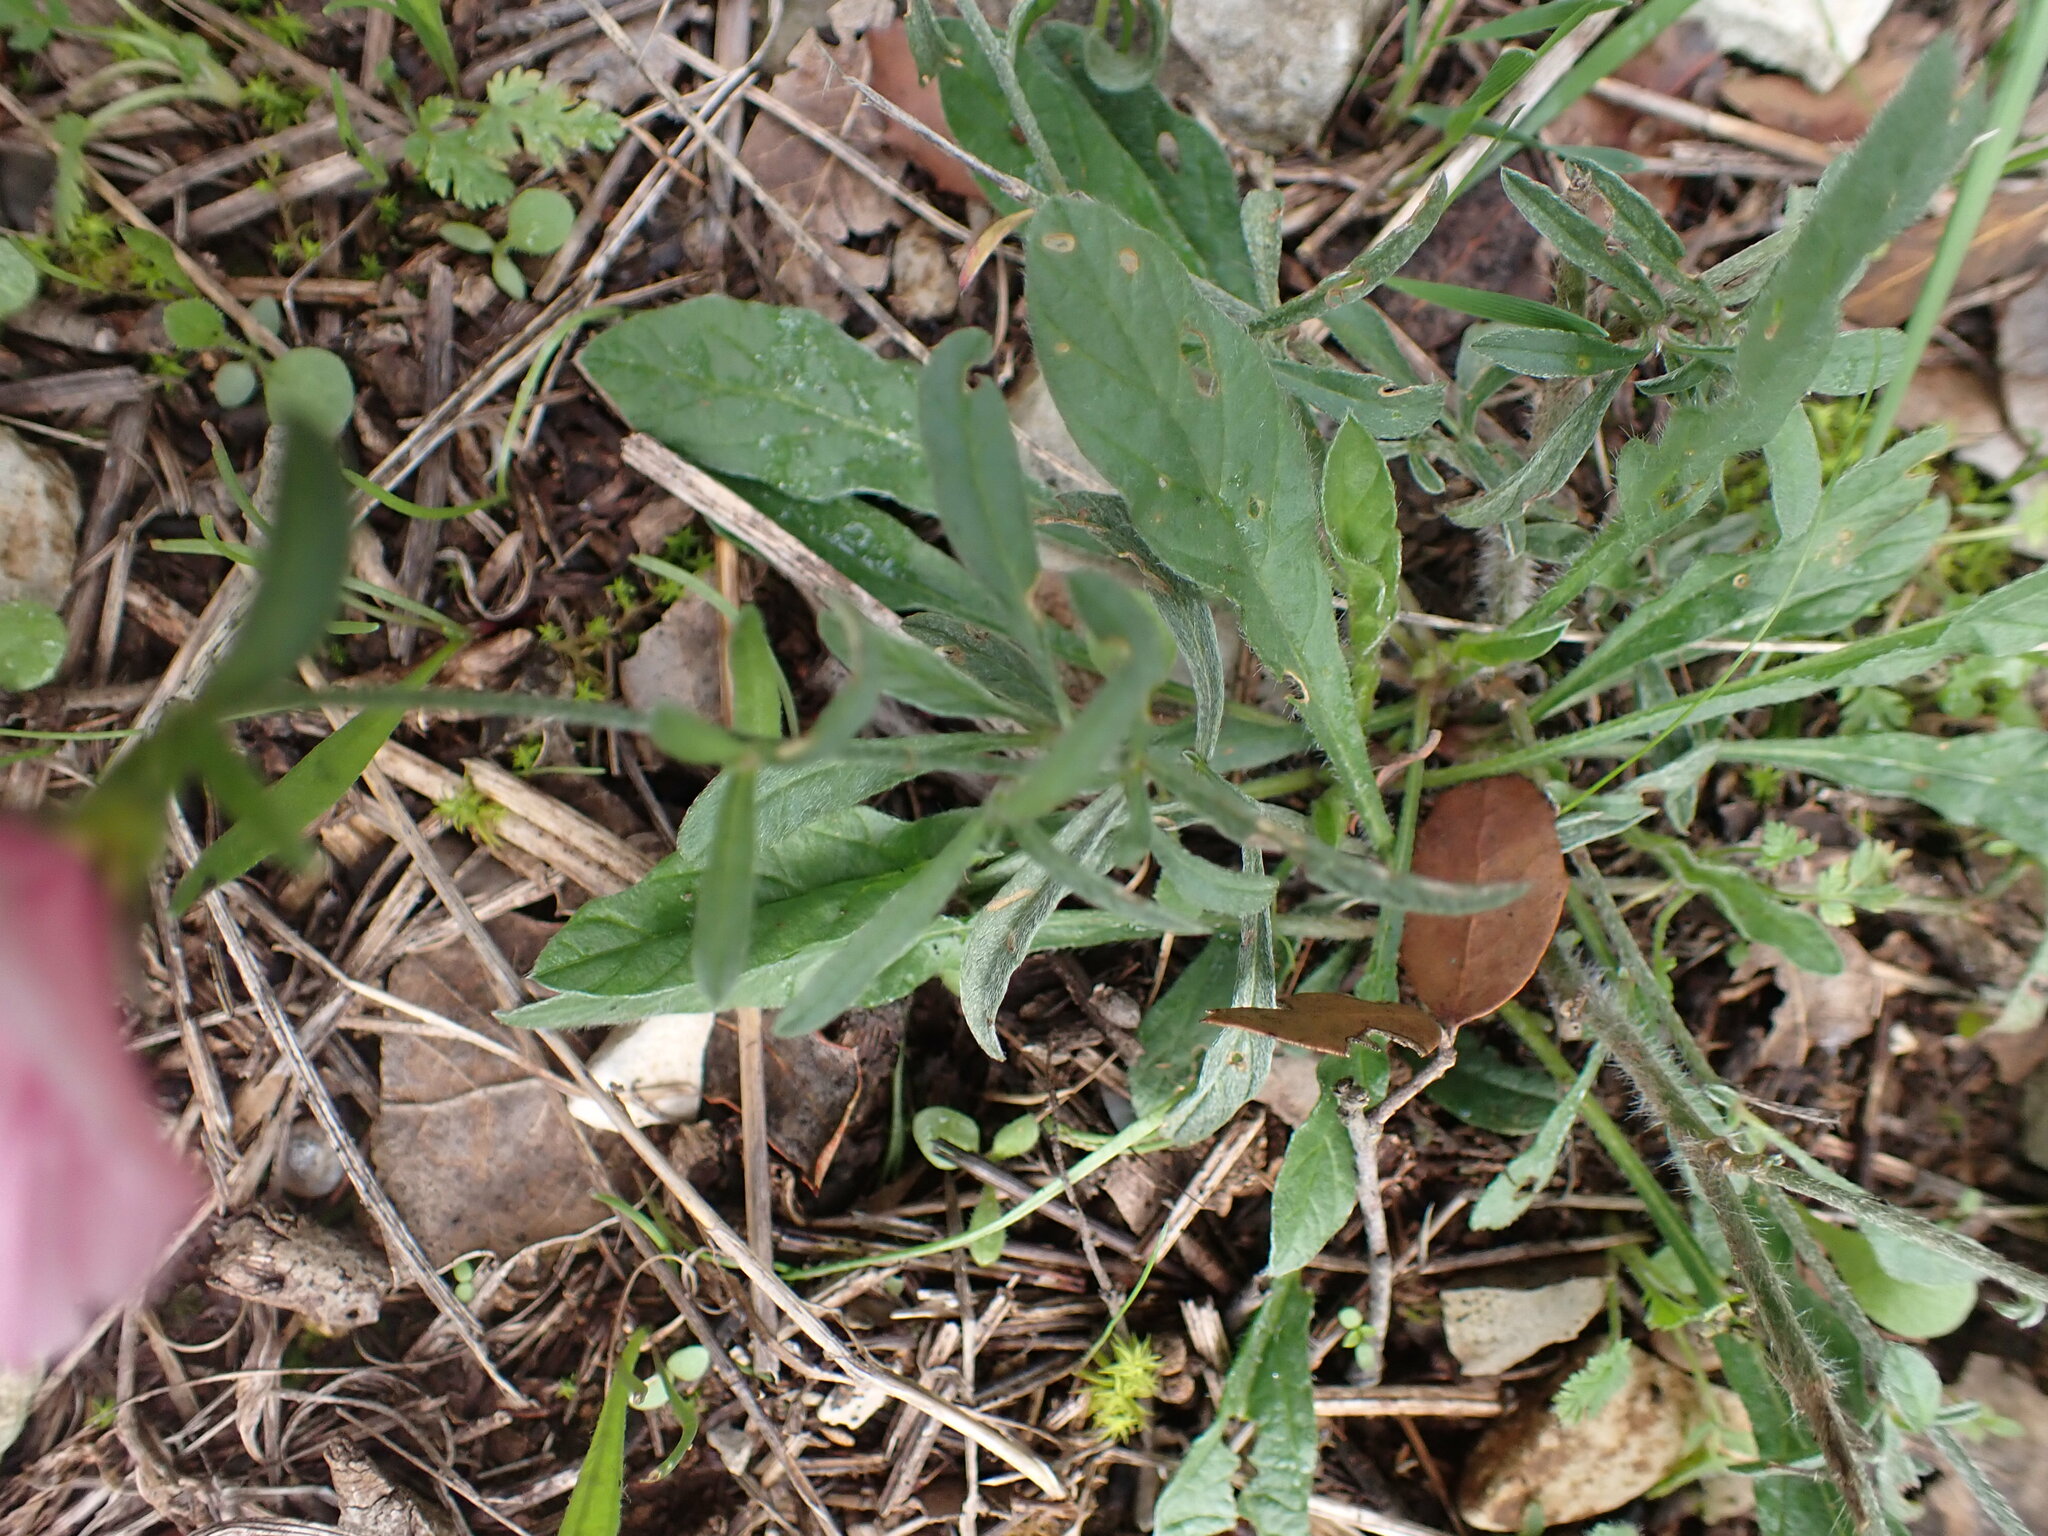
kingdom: Plantae
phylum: Tracheophyta
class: Magnoliopsida
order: Solanales
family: Convolvulaceae
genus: Convolvulus
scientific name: Convolvulus cantabrica
